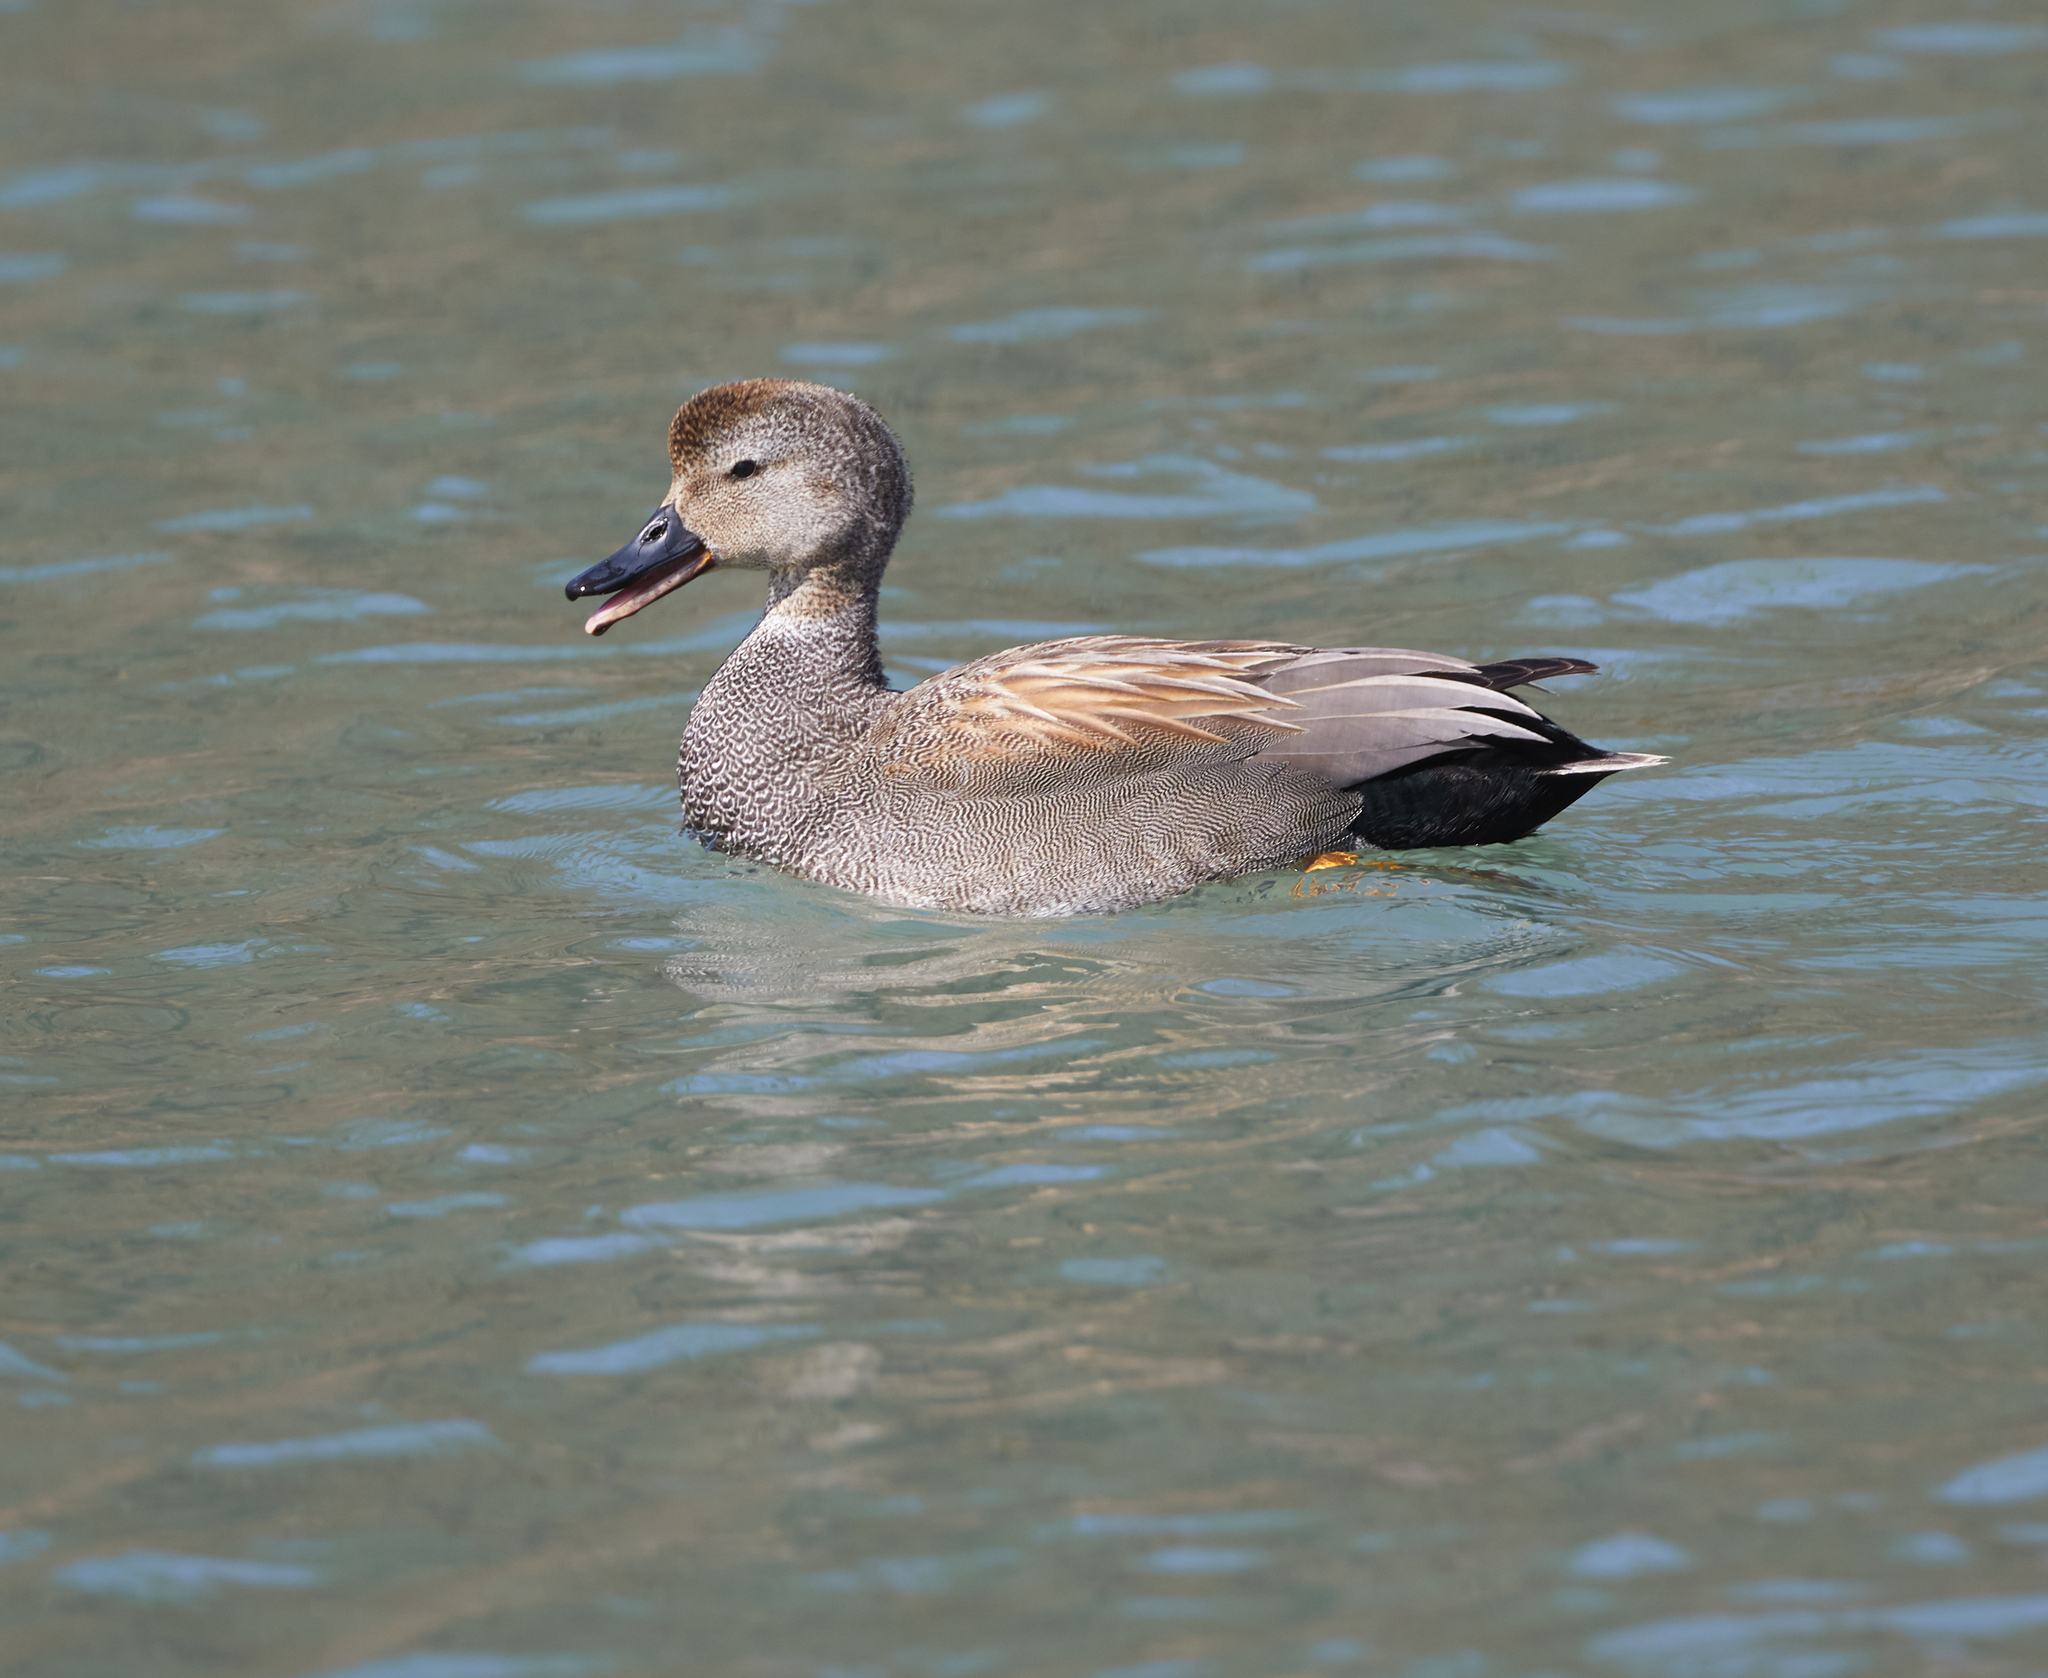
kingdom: Animalia
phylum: Chordata
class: Aves
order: Anseriformes
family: Anatidae
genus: Mareca
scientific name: Mareca strepera
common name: Gadwall
